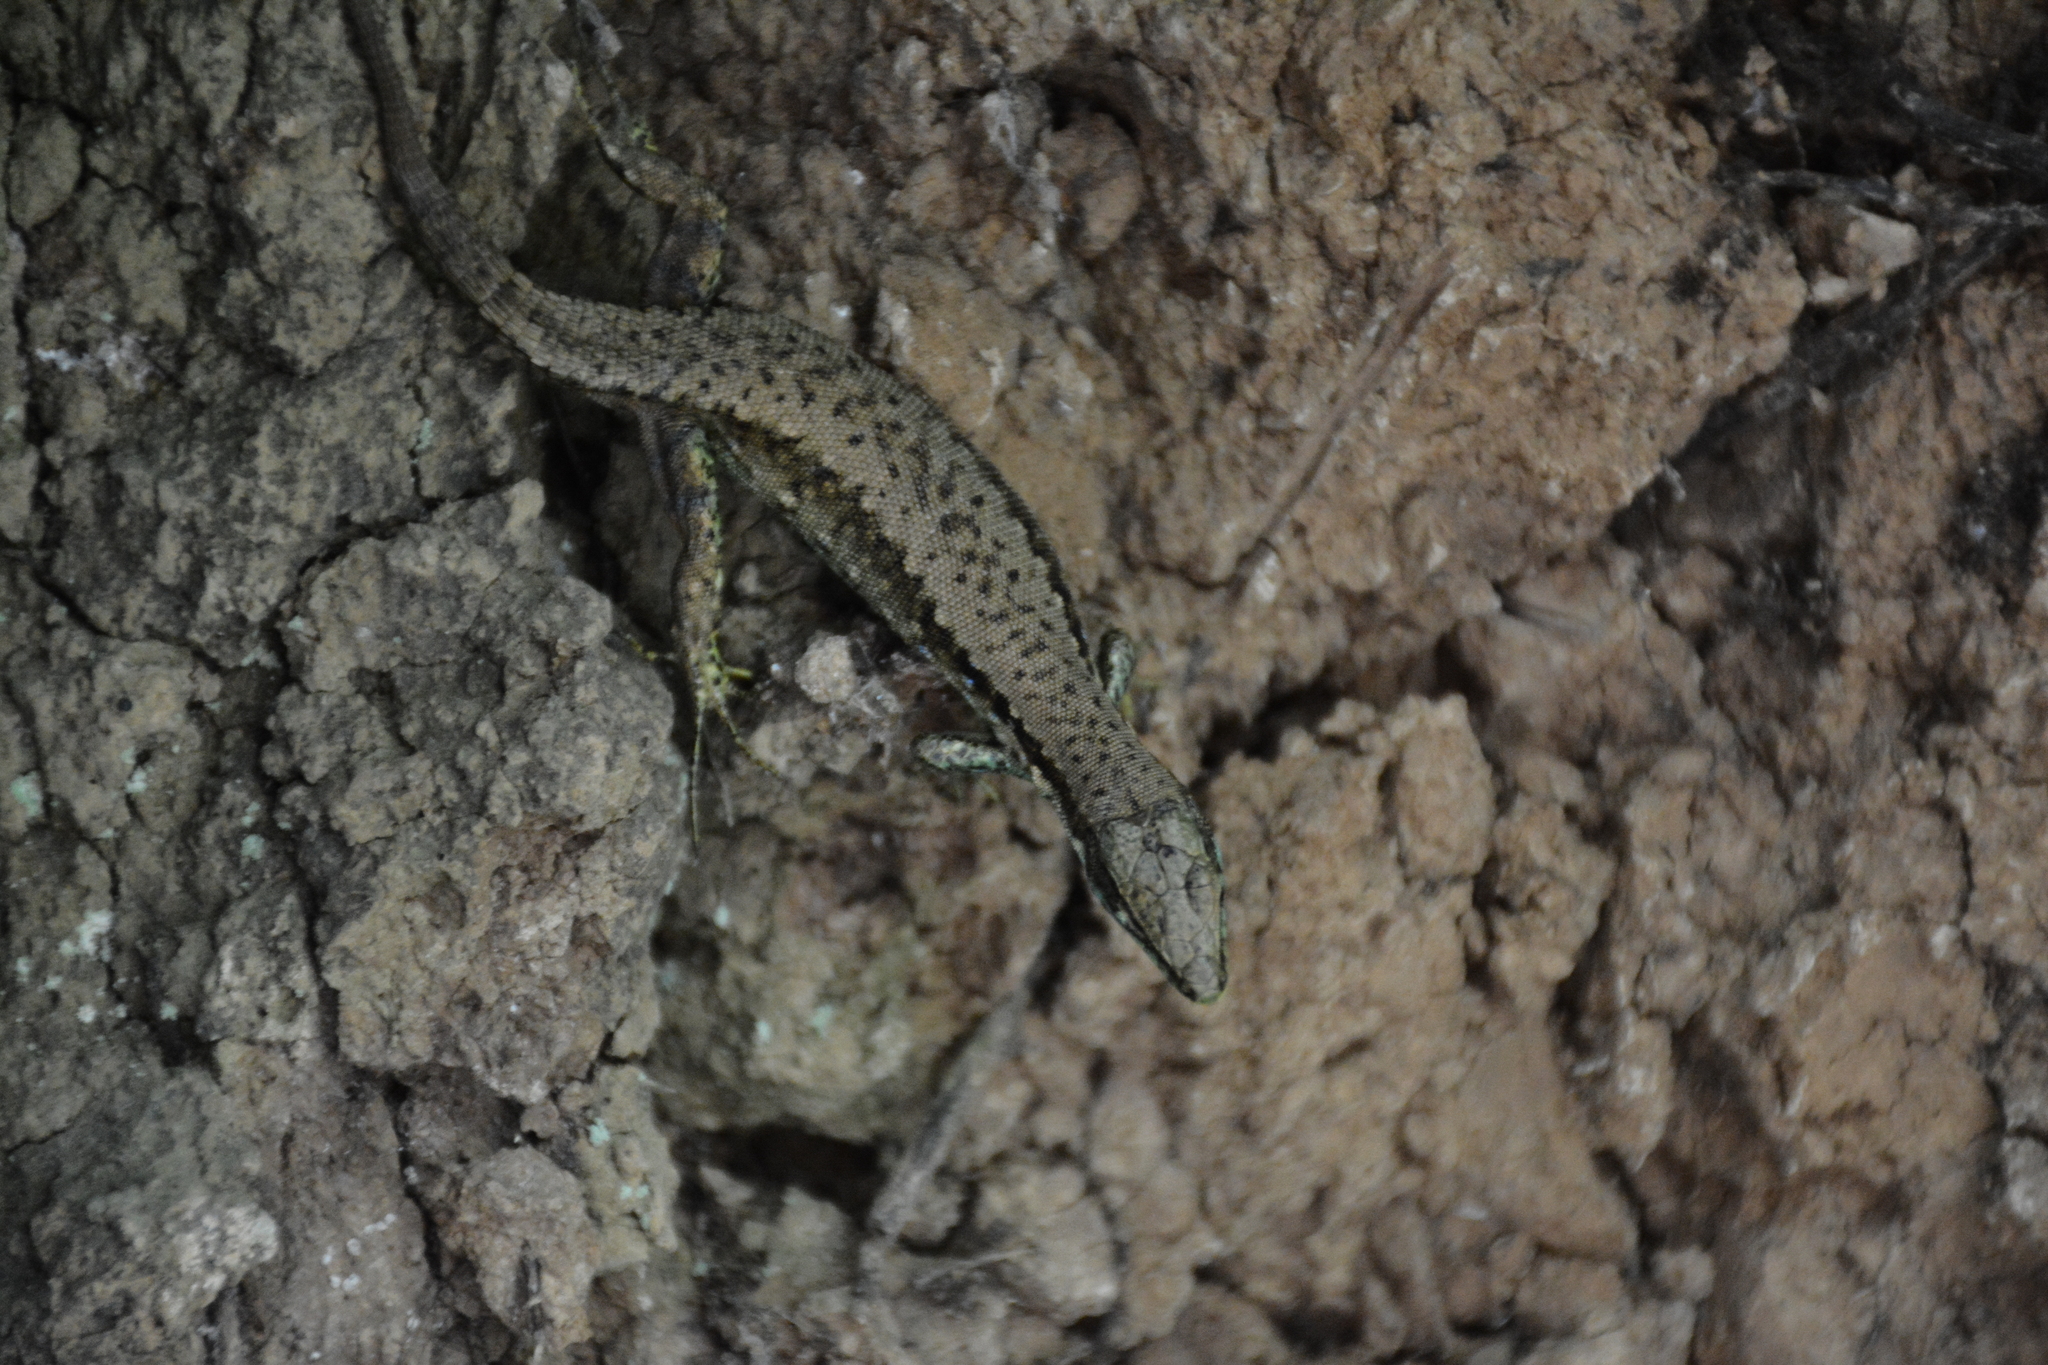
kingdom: Animalia
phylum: Chordata
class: Squamata
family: Lacertidae
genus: Darevskia
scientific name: Darevskia steineri
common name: Steiner's lacerta
